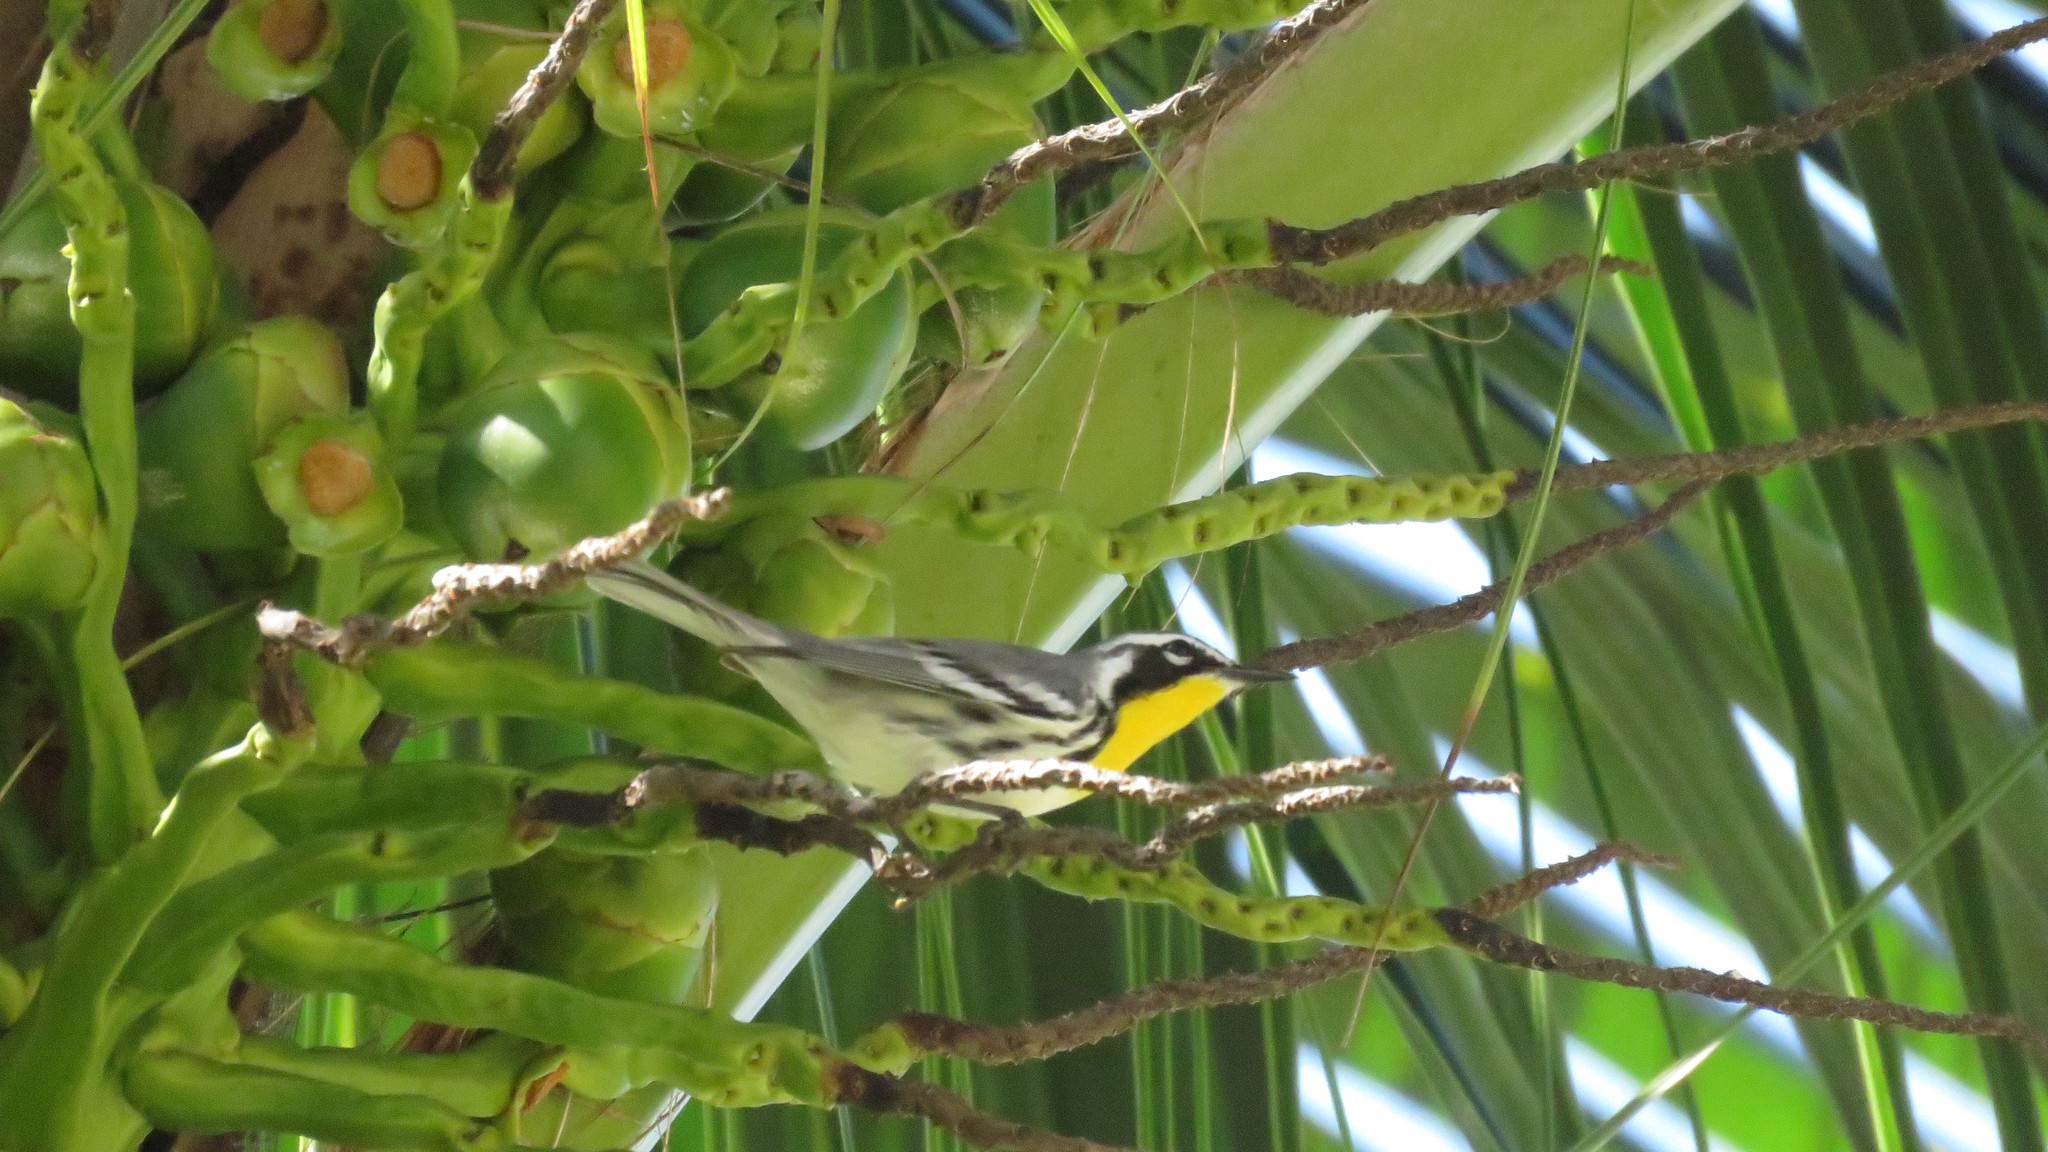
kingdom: Animalia
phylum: Chordata
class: Aves
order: Passeriformes
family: Parulidae
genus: Setophaga
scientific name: Setophaga dominica
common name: Yellow-throated warbler
